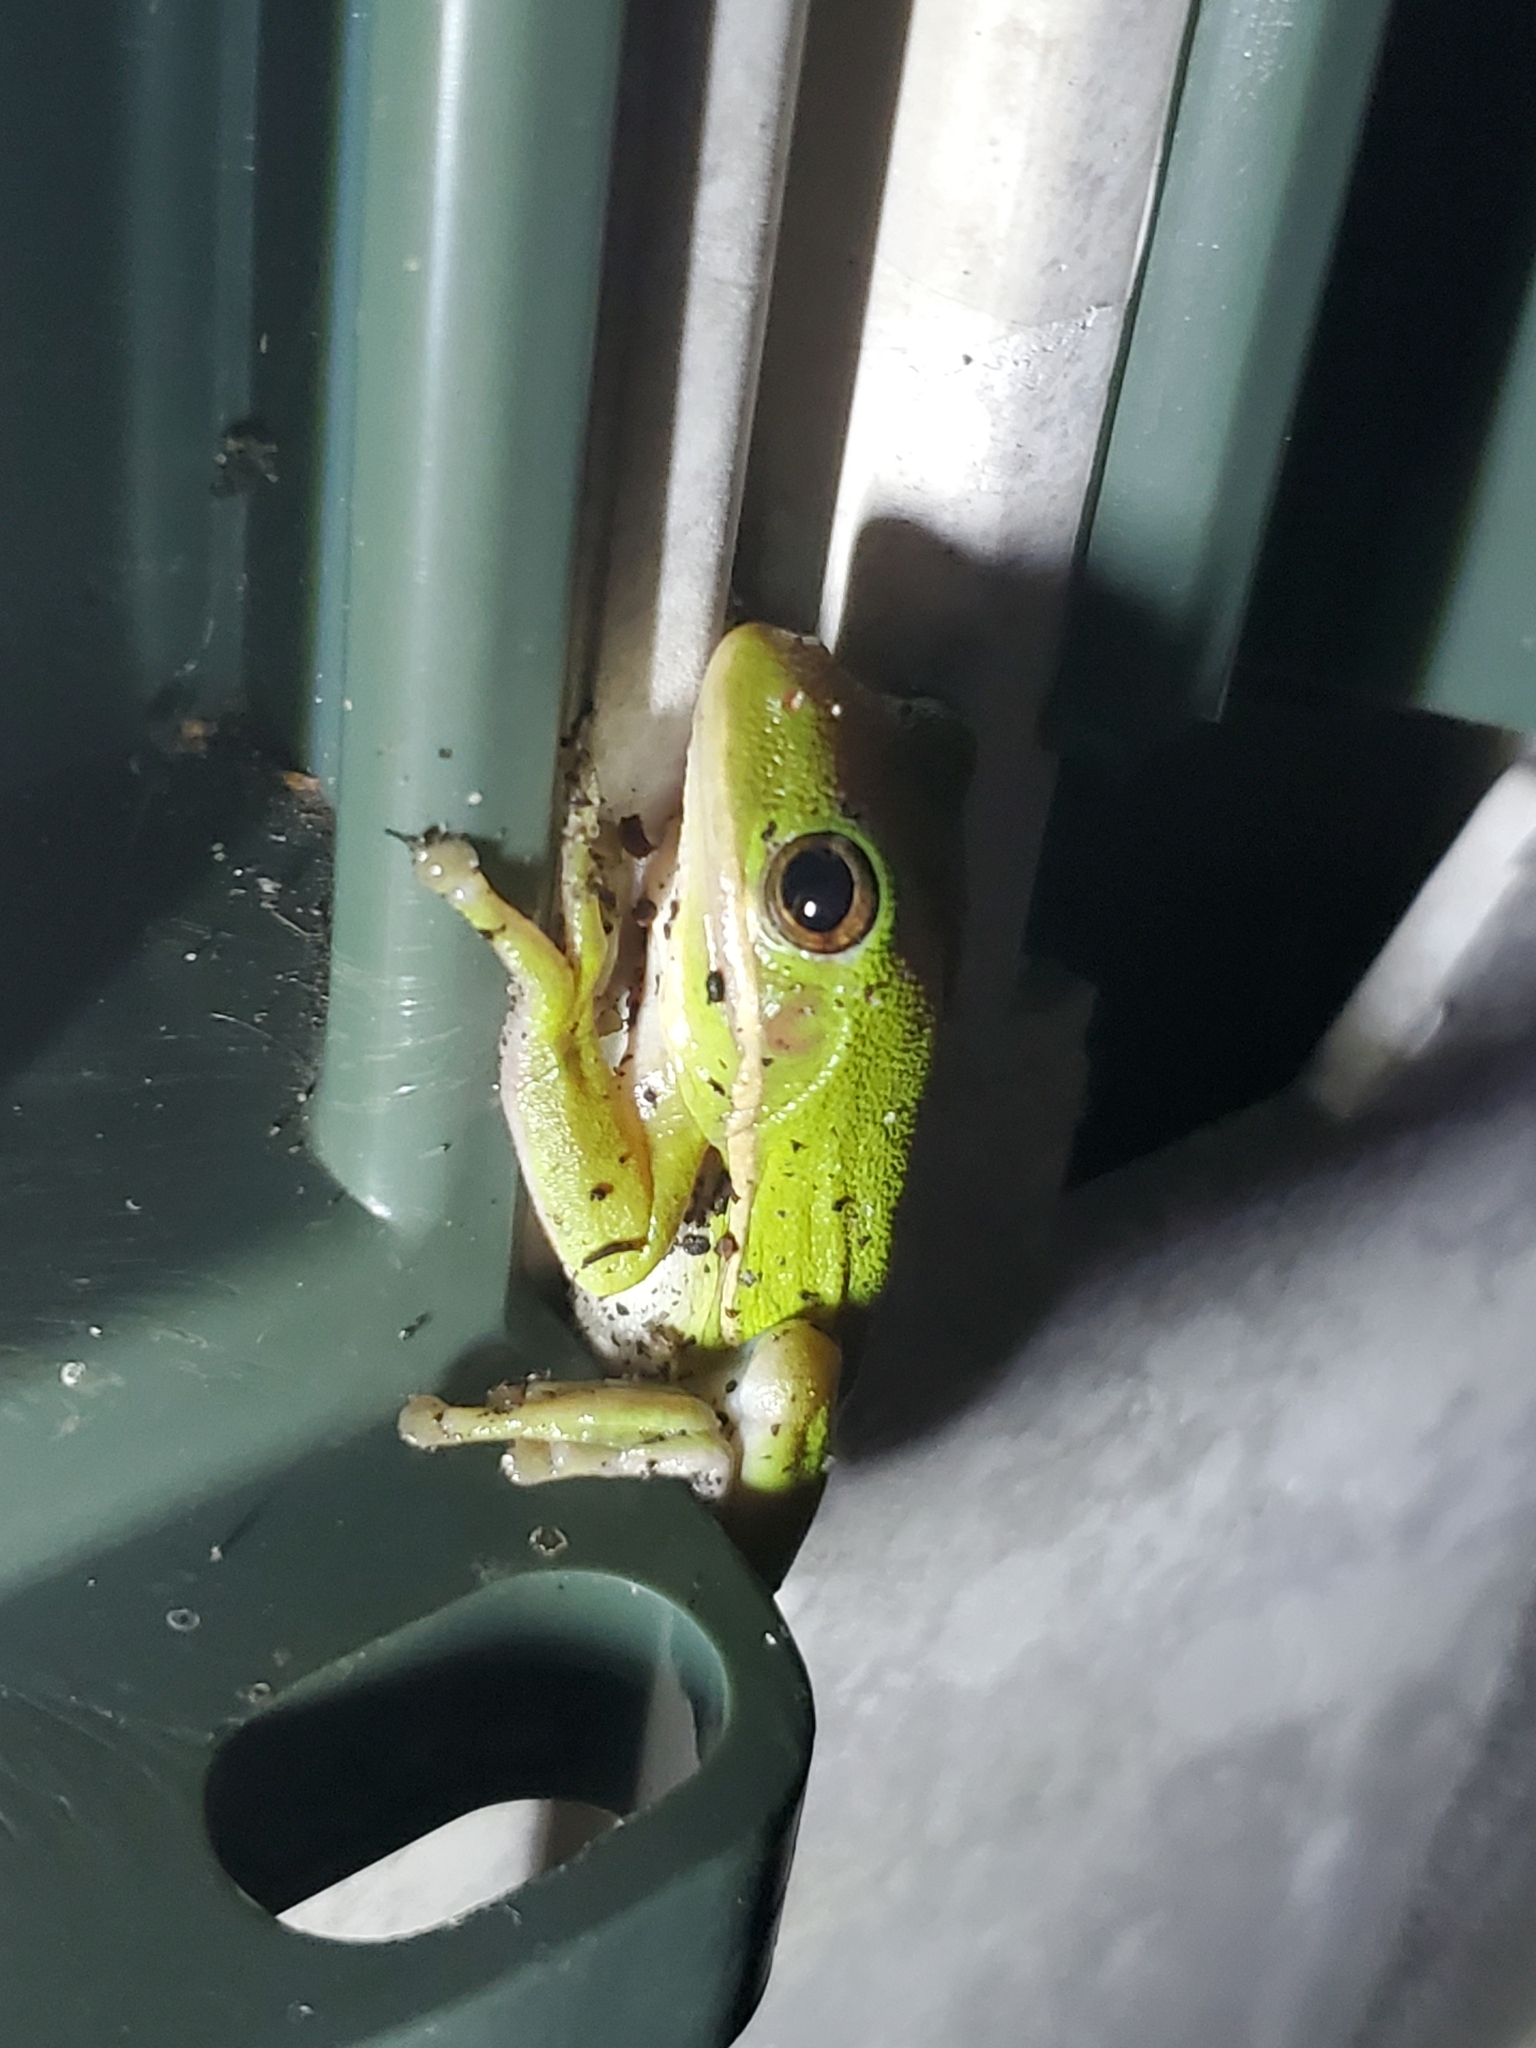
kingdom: Animalia
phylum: Chordata
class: Amphibia
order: Anura
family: Hylidae
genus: Dryophytes
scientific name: Dryophytes cinereus
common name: Green treefrog
